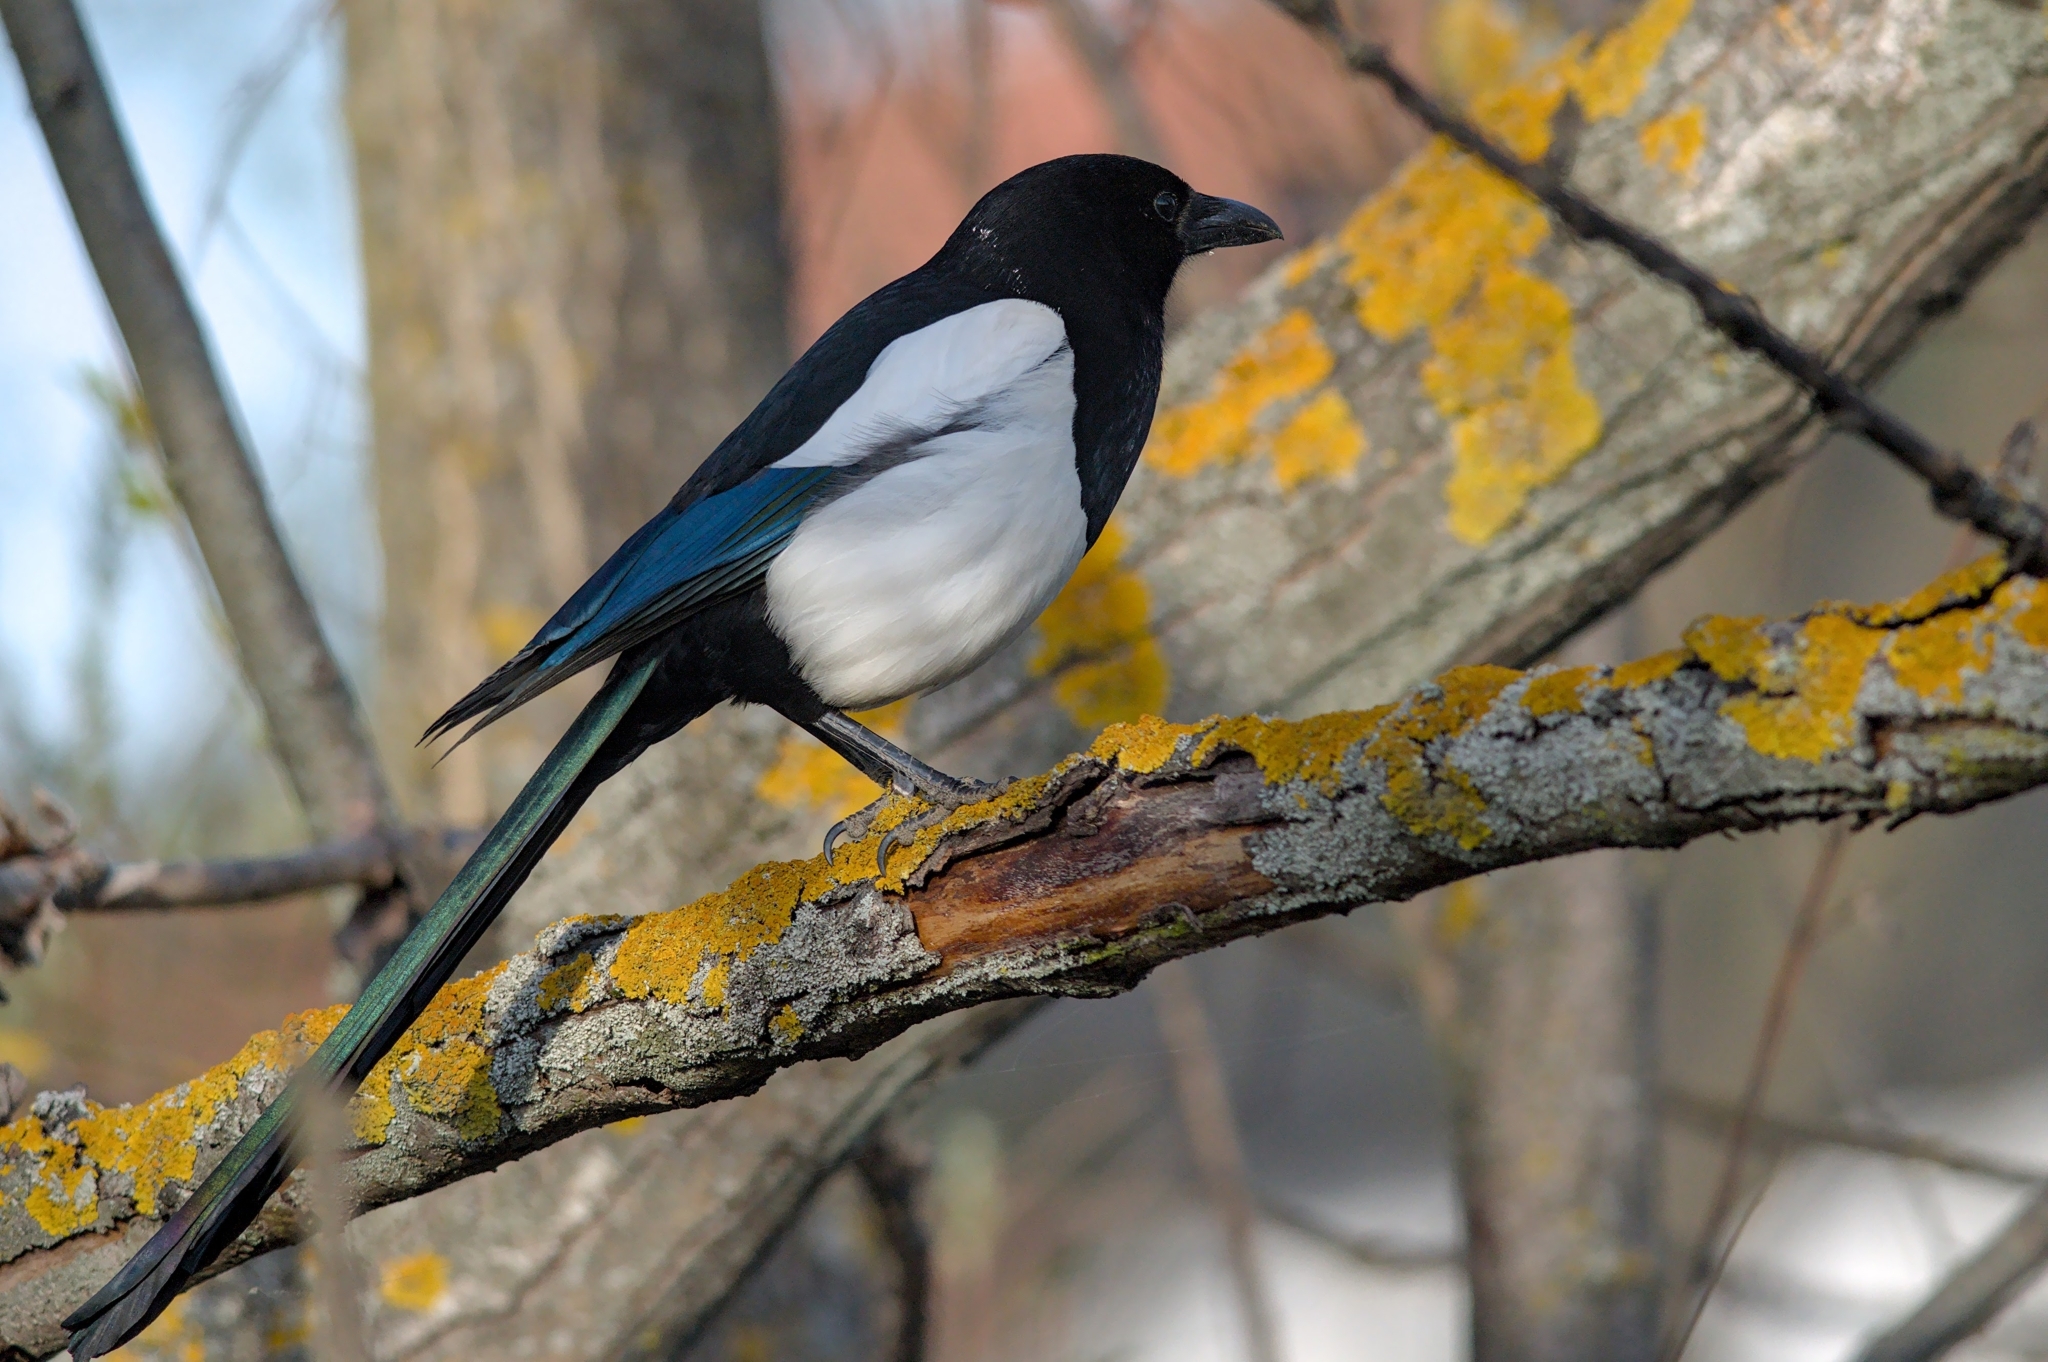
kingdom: Animalia
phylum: Chordata
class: Aves
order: Passeriformes
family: Corvidae
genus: Pica
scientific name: Pica pica
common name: Eurasian magpie
